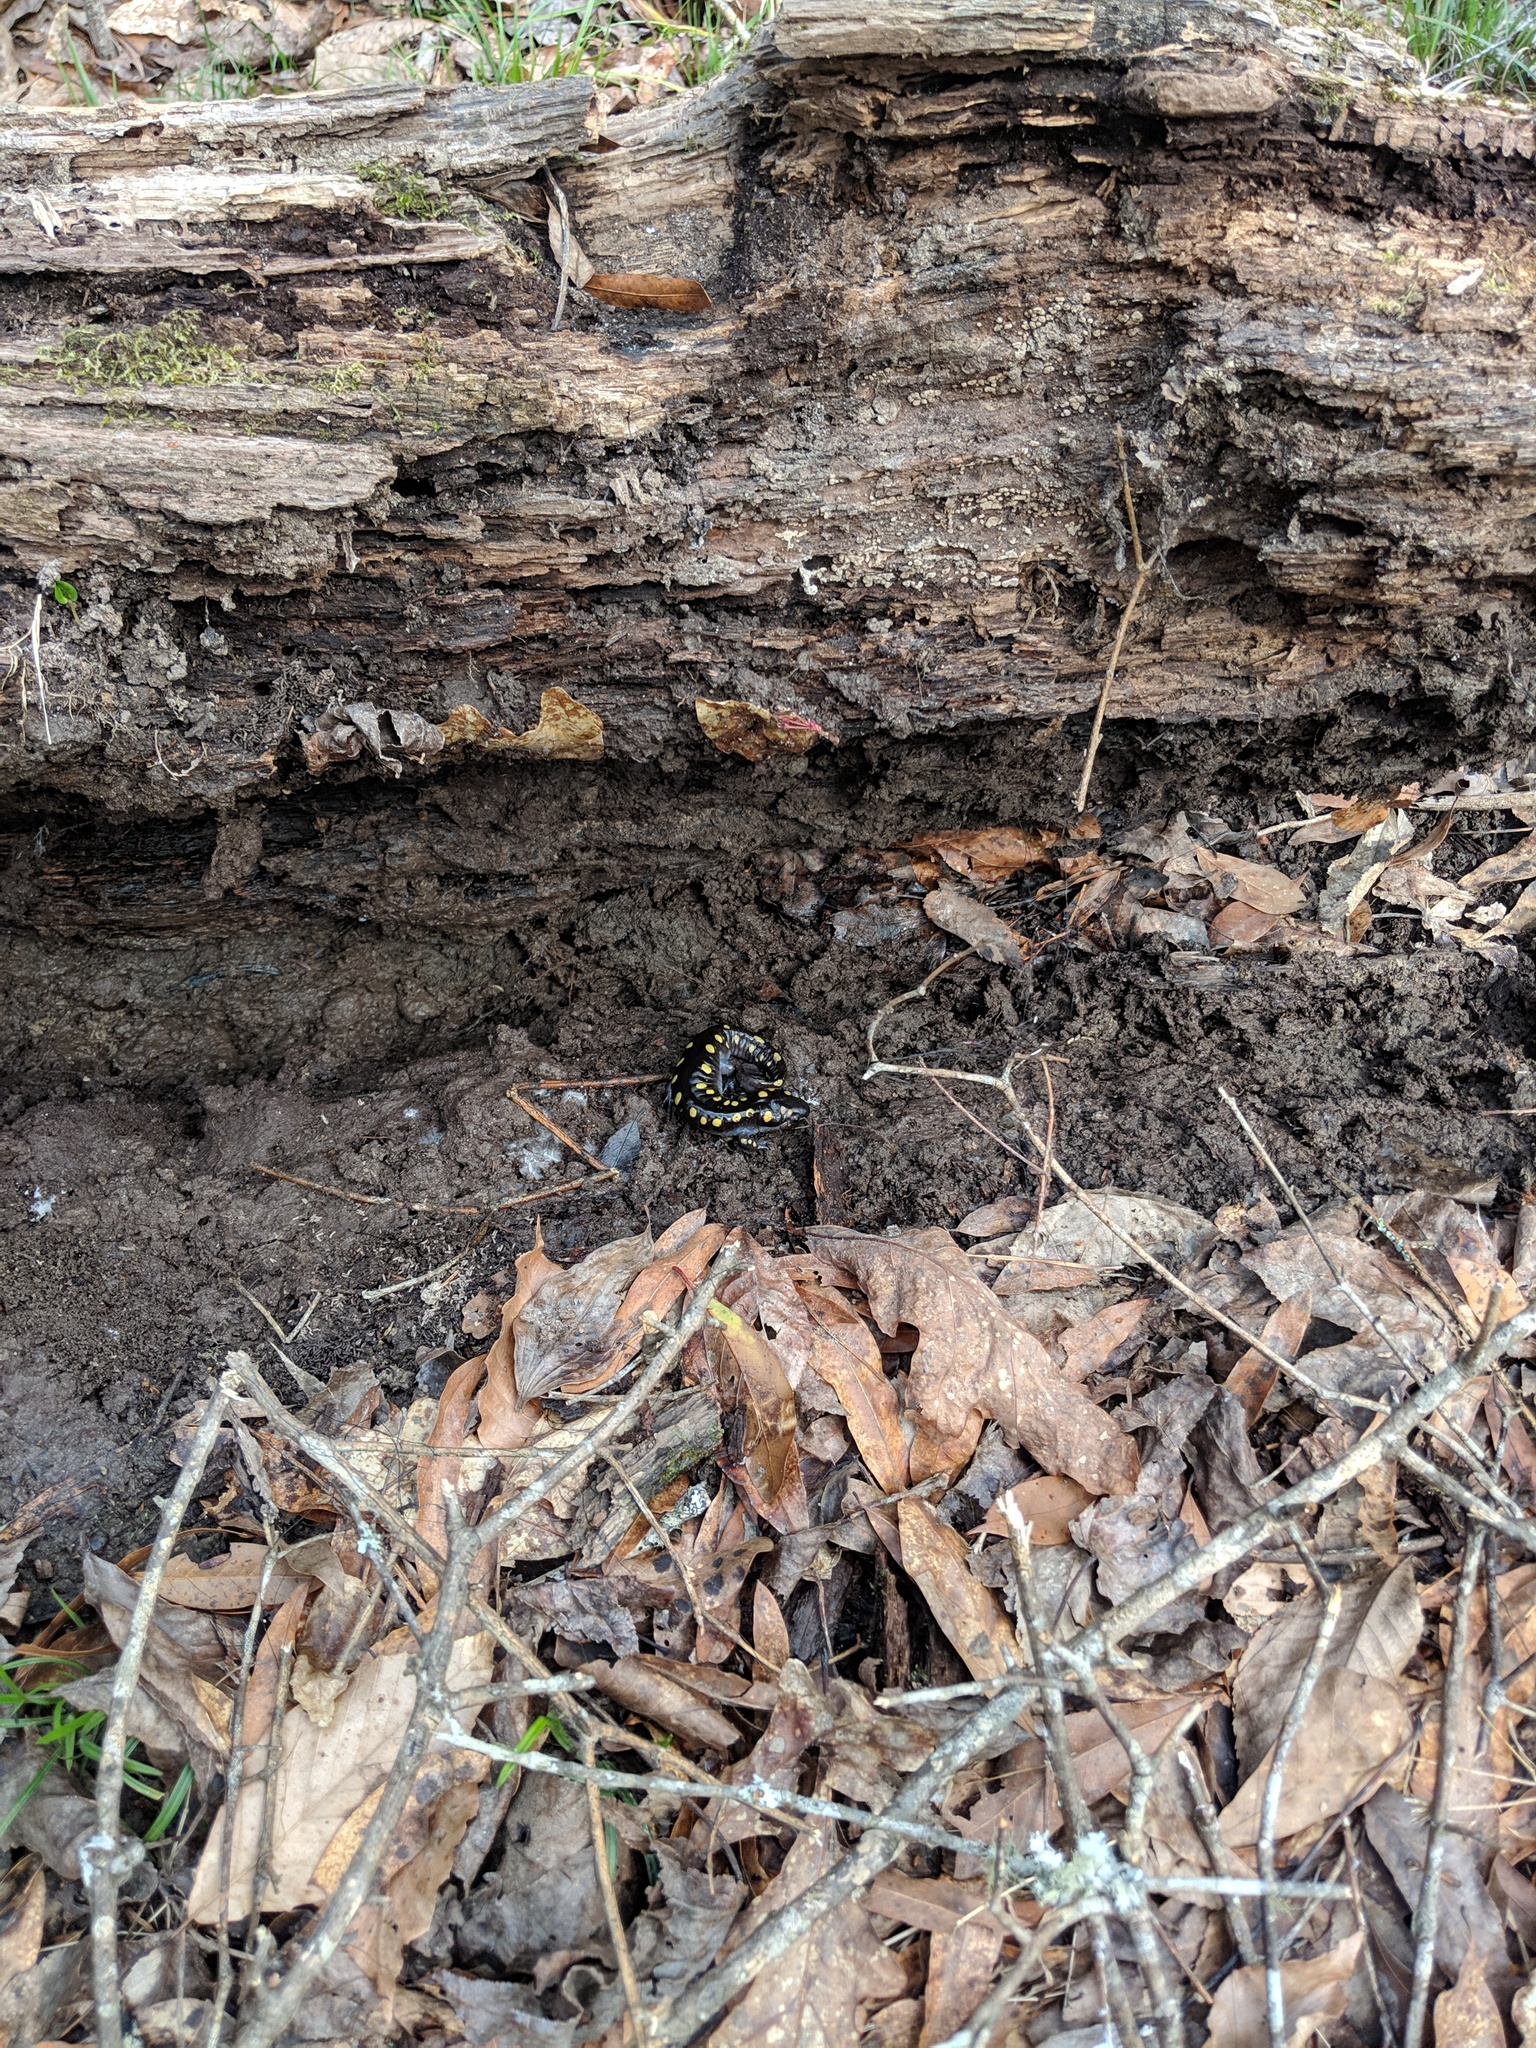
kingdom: Animalia
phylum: Chordata
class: Amphibia
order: Caudata
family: Ambystomatidae
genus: Ambystoma
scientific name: Ambystoma maculatum
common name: Spotted salamander
